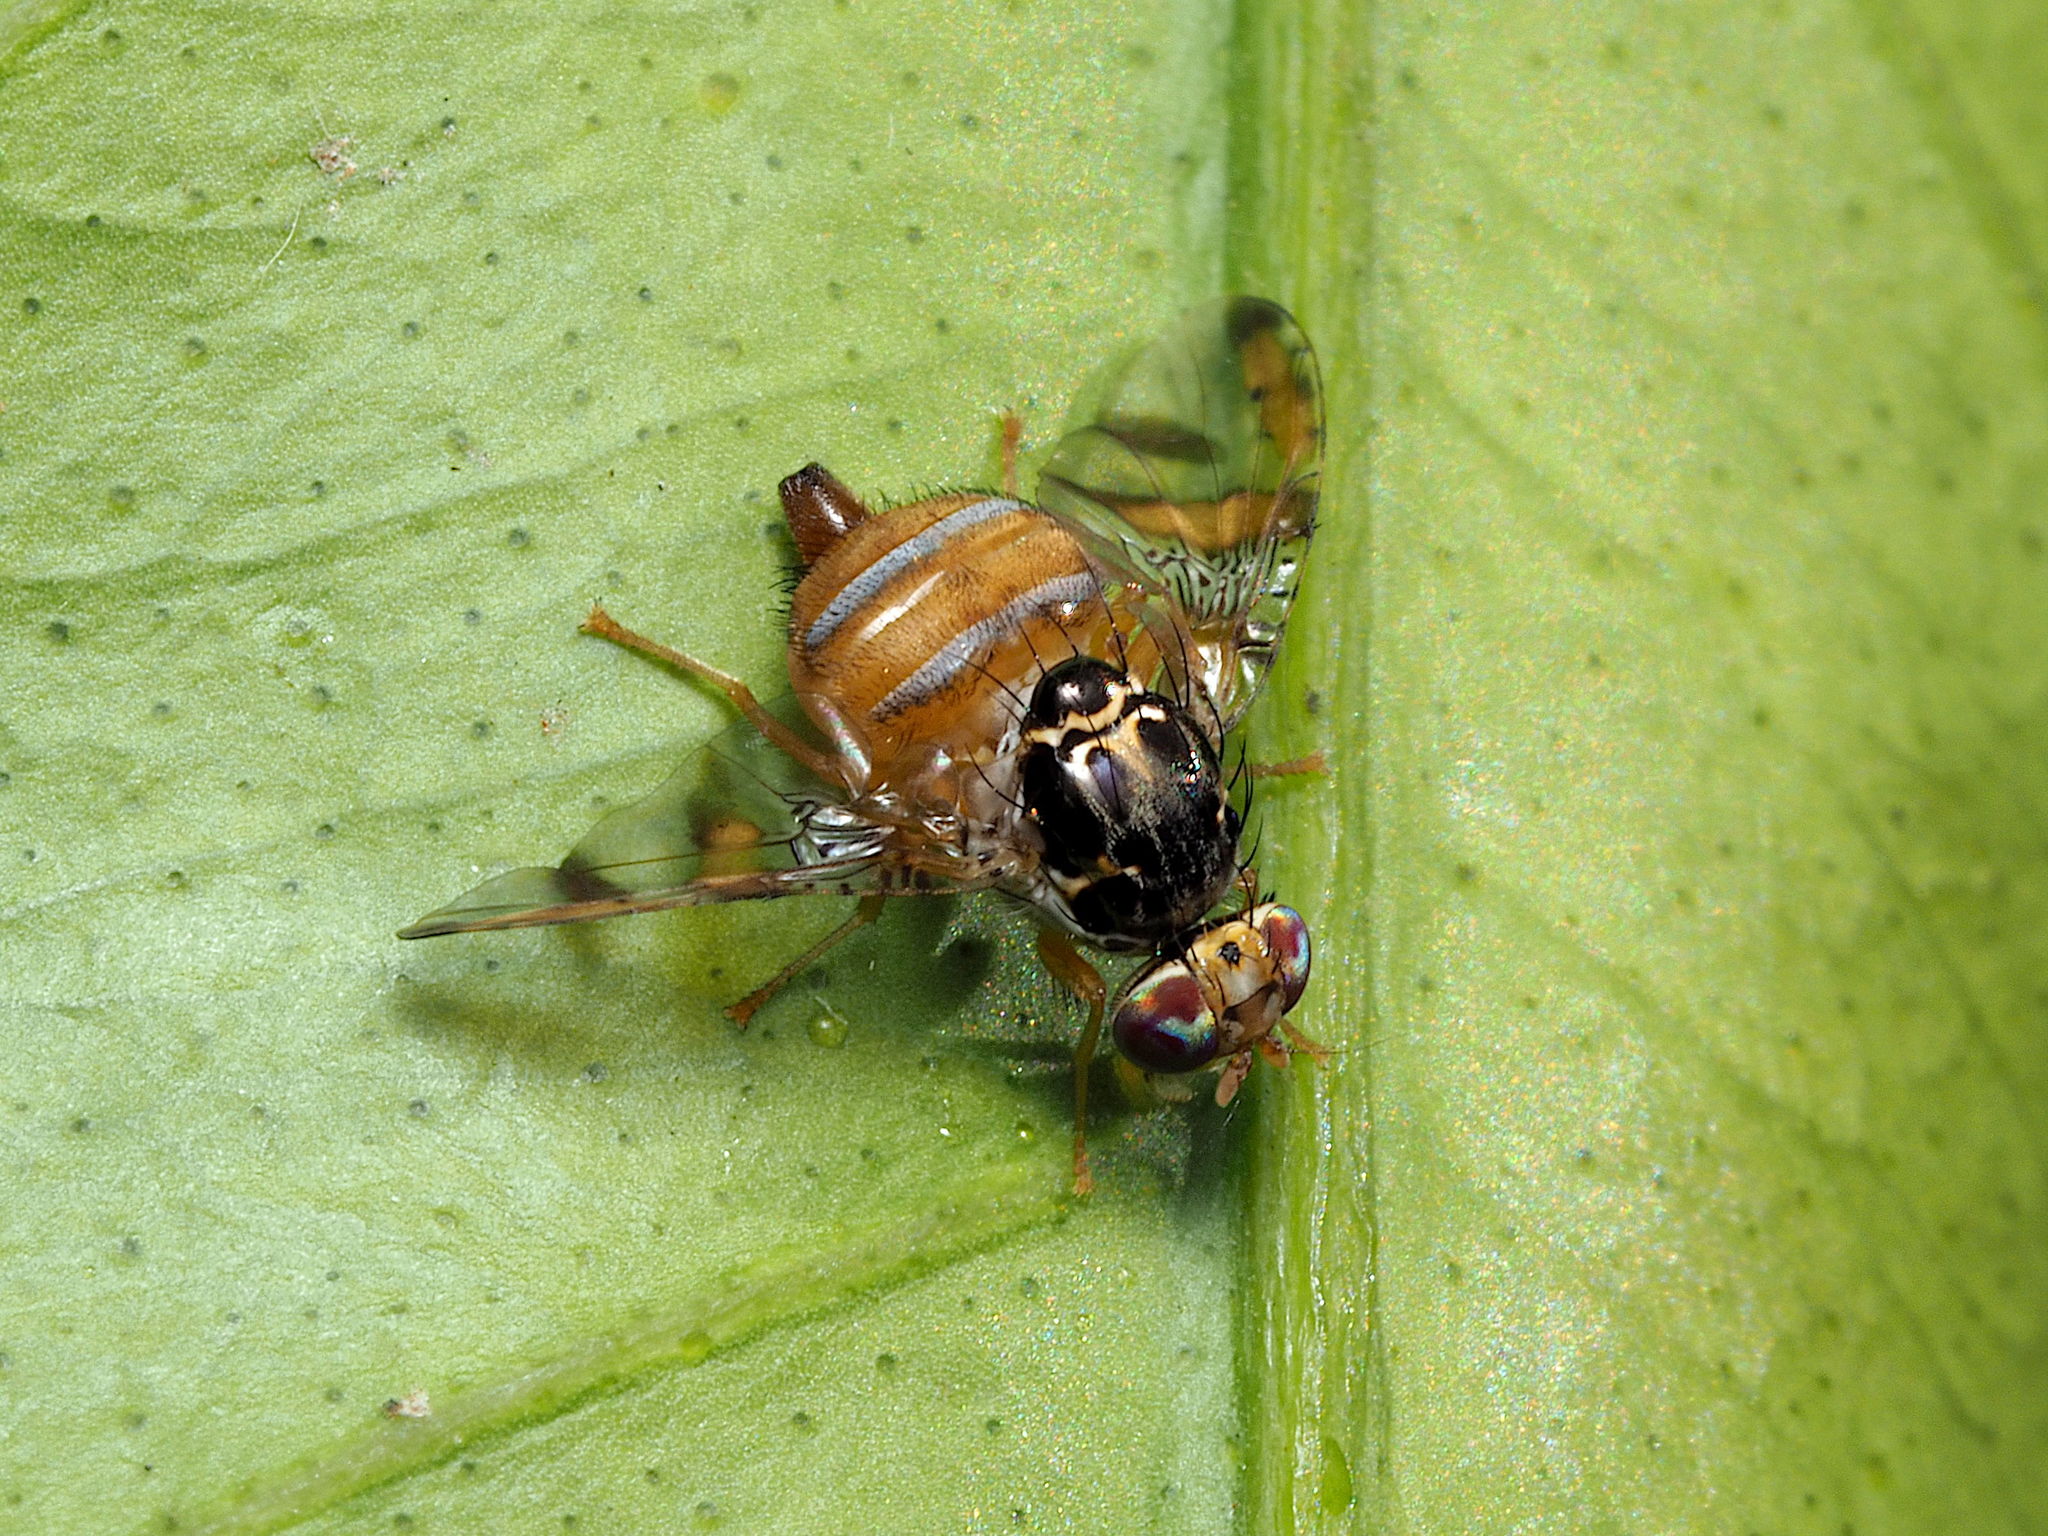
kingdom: Animalia
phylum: Arthropoda
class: Insecta
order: Diptera
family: Tephritidae
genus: Ceratitis
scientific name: Ceratitis capitata
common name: Mediterranean fruit fly
